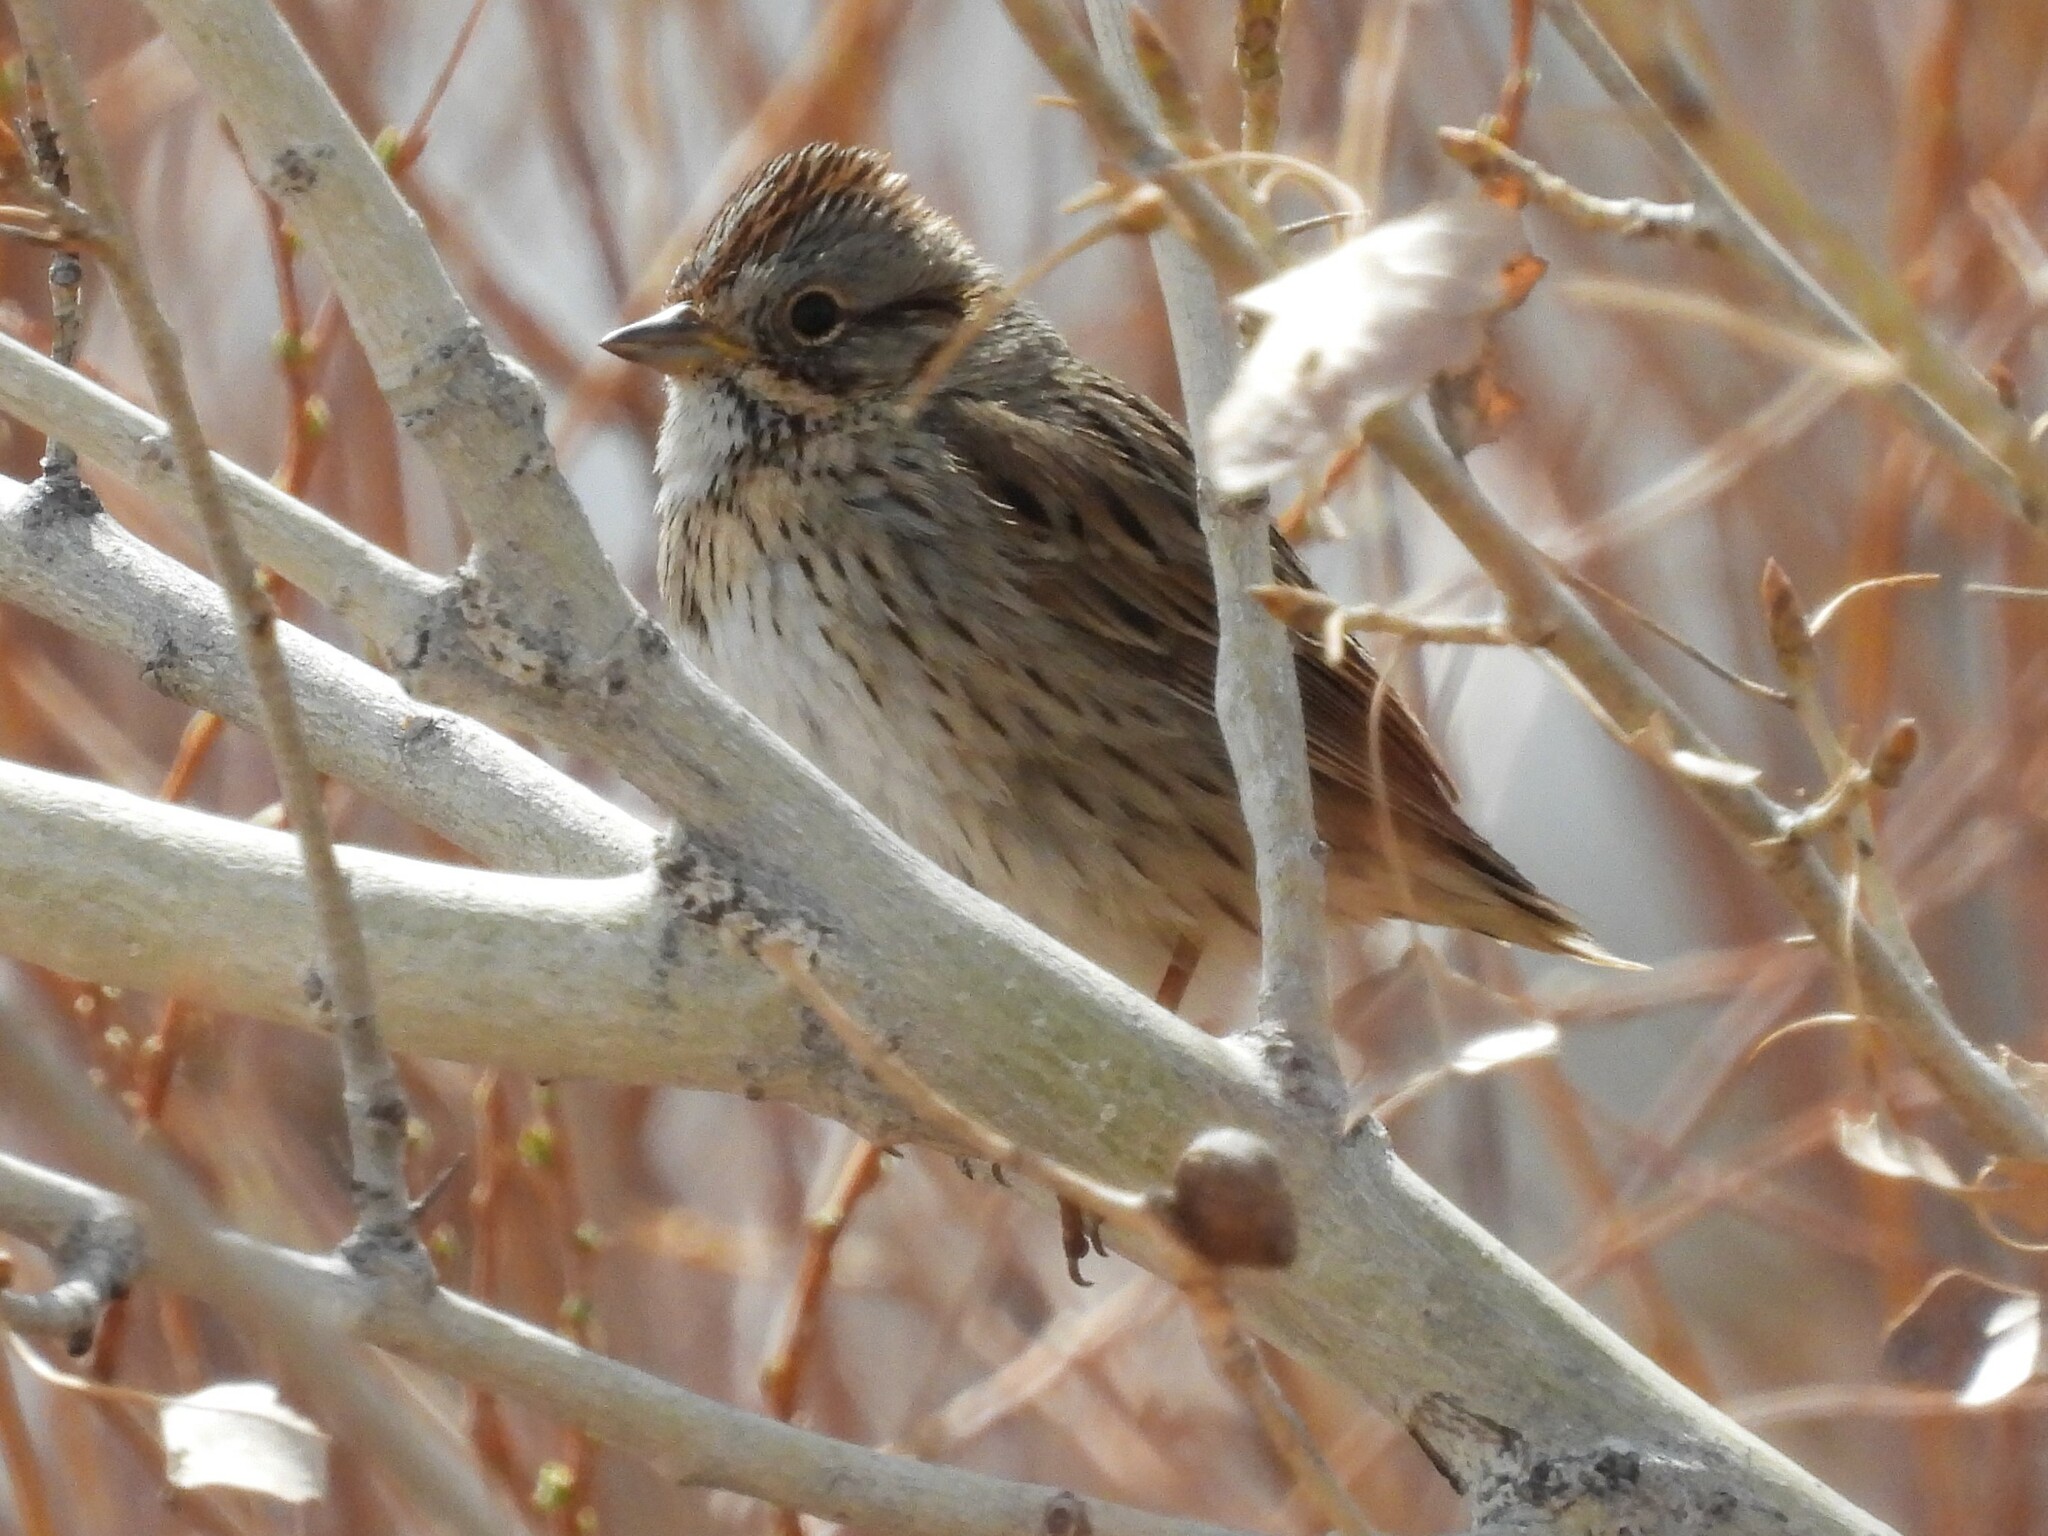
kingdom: Animalia
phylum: Chordata
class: Aves
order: Passeriformes
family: Passerellidae
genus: Melospiza
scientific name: Melospiza lincolnii
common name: Lincoln's sparrow
